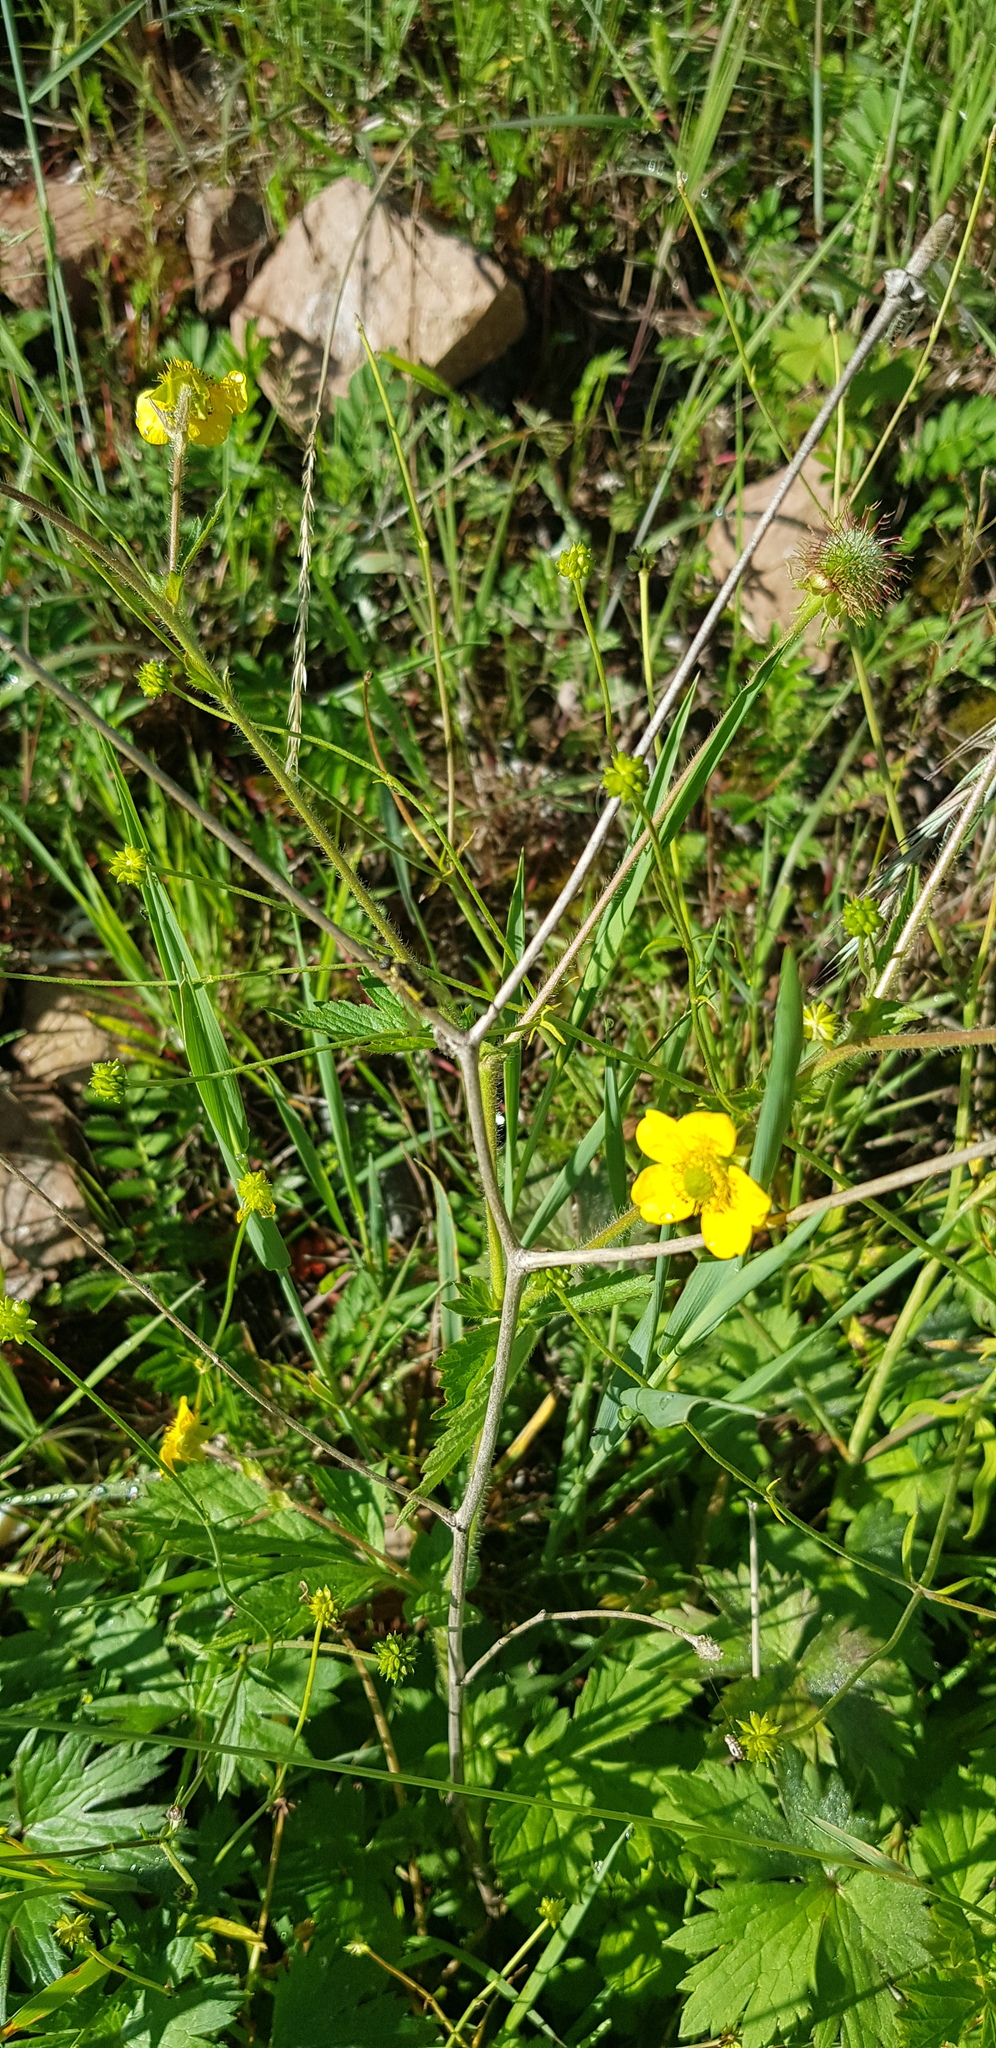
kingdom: Plantae
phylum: Tracheophyta
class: Magnoliopsida
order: Ranunculales
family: Ranunculaceae
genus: Ranunculus
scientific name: Ranunculus propinquus
